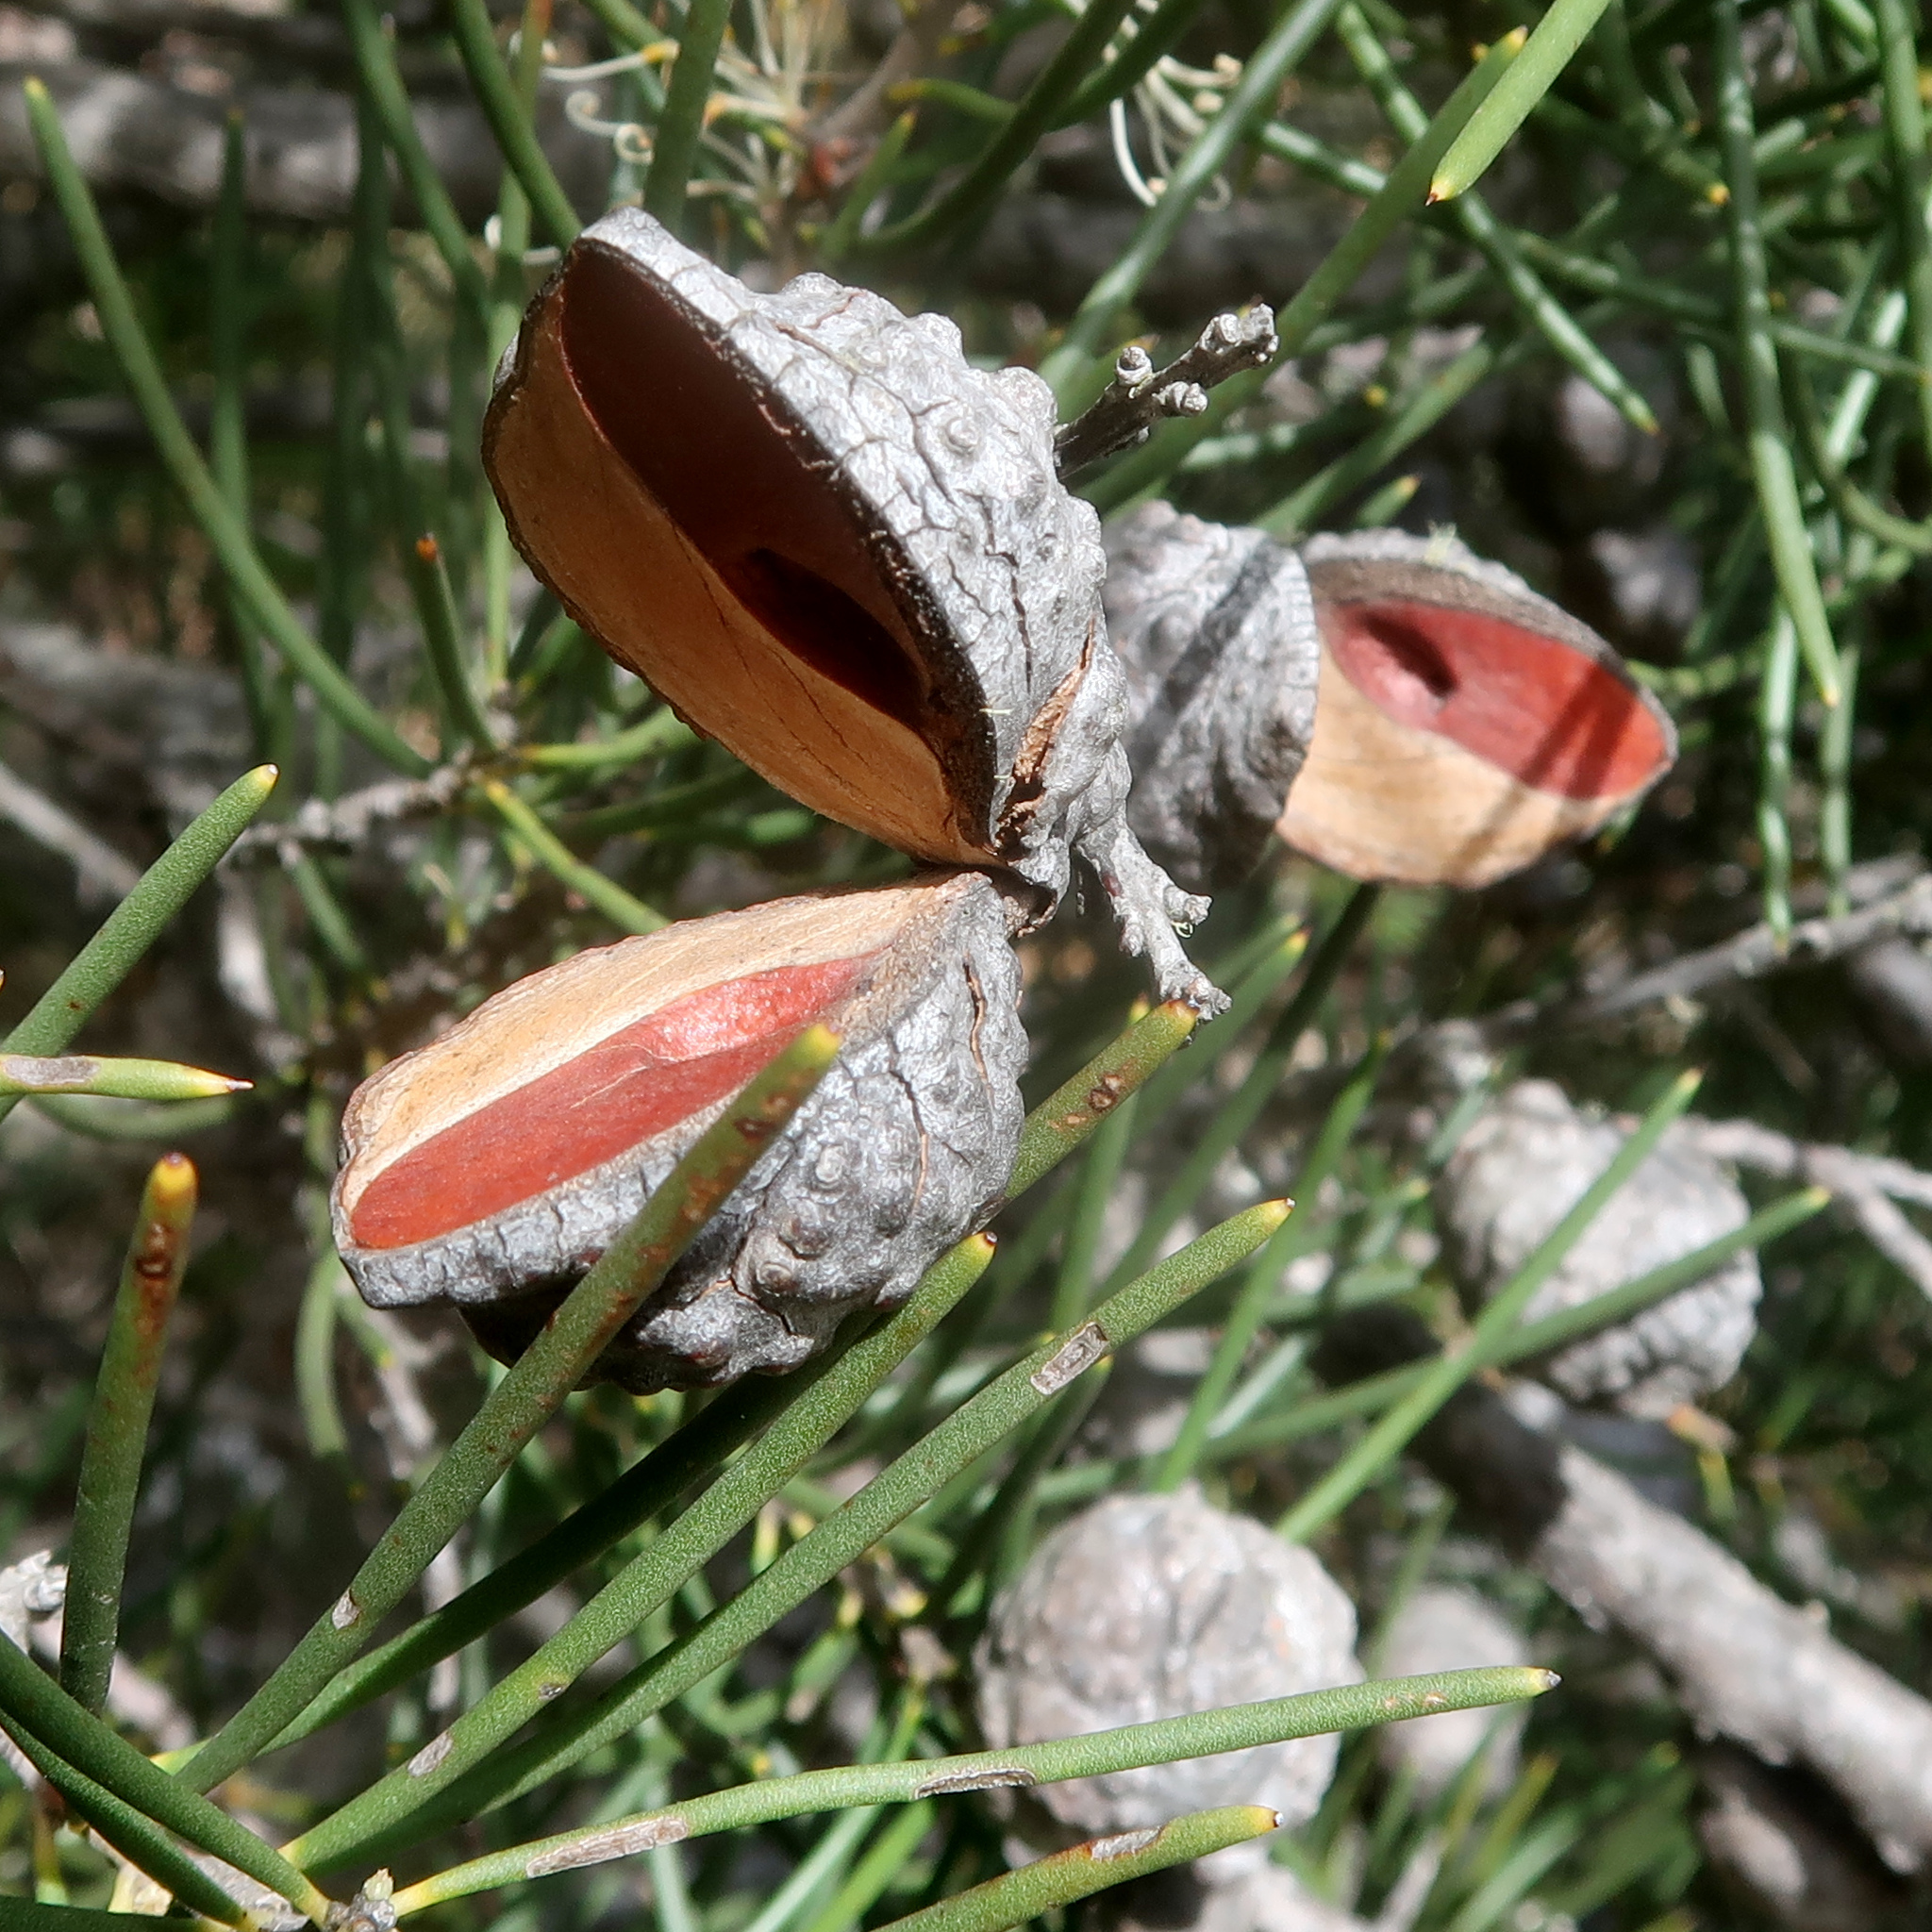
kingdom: Plantae
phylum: Tracheophyta
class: Magnoliopsida
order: Proteales
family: Proteaceae
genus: Hakea
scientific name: Hakea lissosperma
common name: Mountain needlewood
